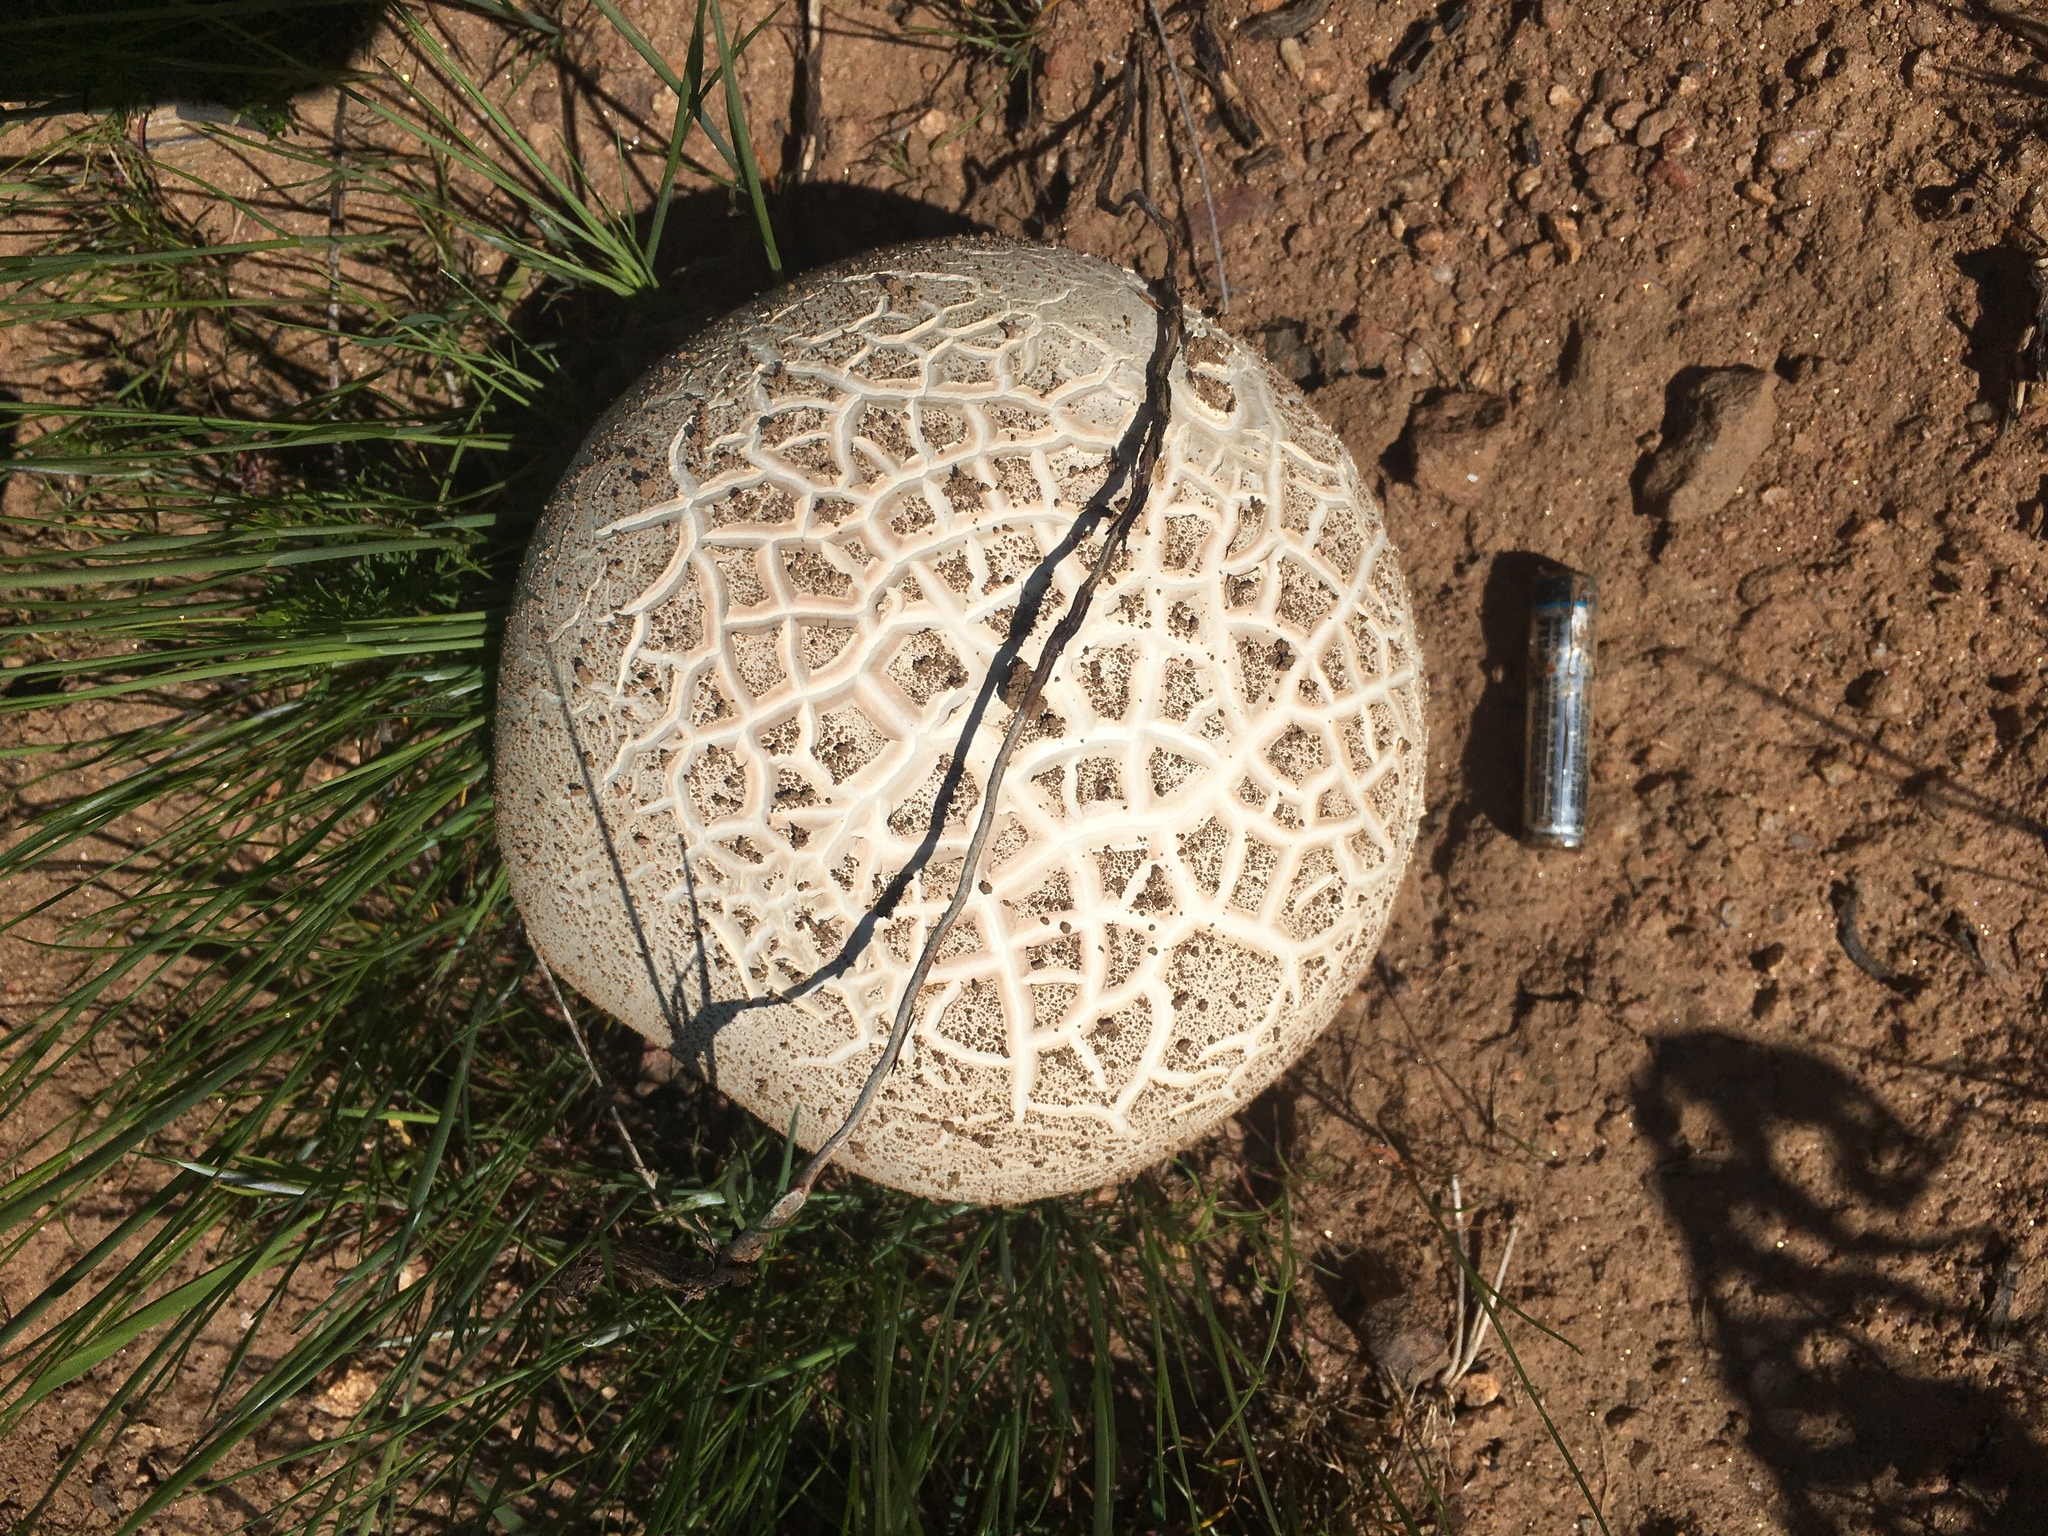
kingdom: Fungi
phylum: Basidiomycota
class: Agaricomycetes
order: Agaricales
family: Lycoperdaceae
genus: Calvatia
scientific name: Calvatia booniana
